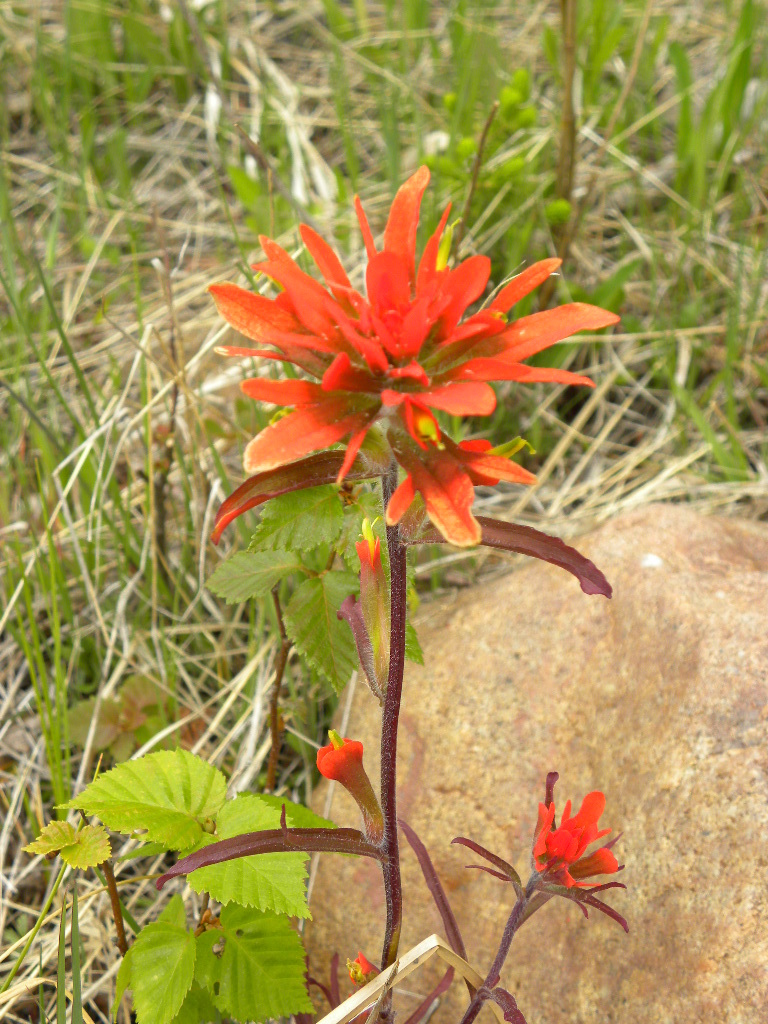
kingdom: Plantae
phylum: Tracheophyta
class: Magnoliopsida
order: Lamiales
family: Orobanchaceae
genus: Castilleja
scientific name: Castilleja coccinea
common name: Scarlet paintbrush
